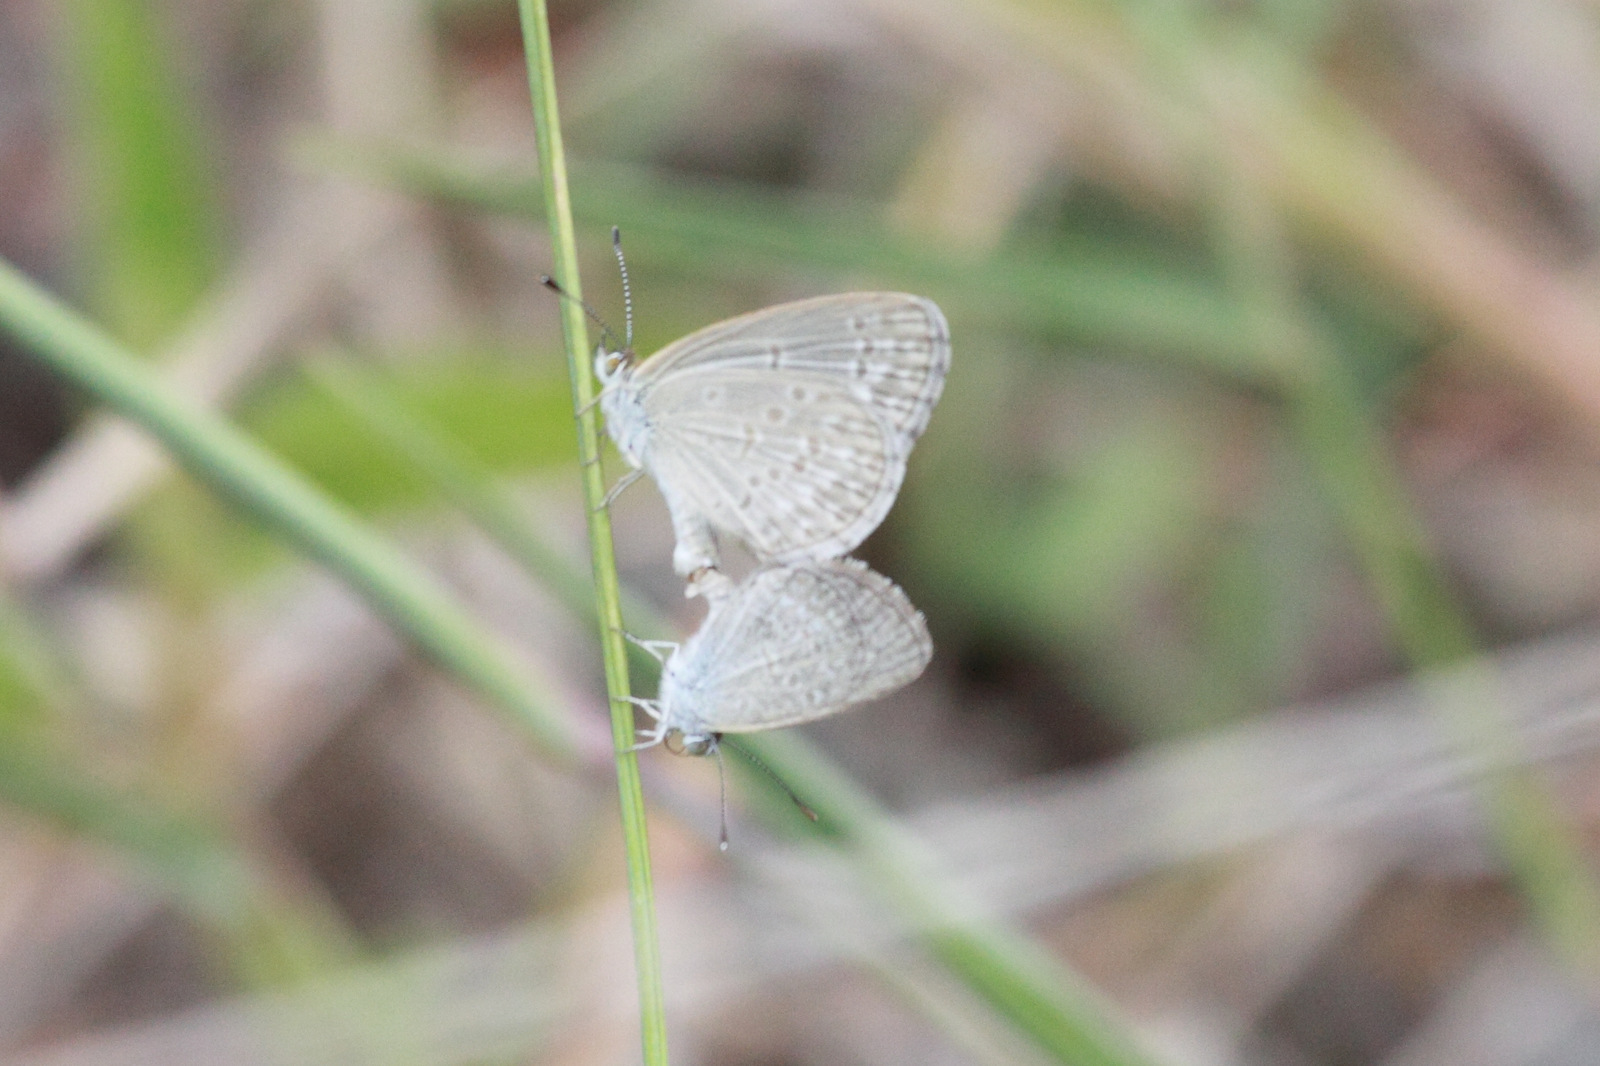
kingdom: Animalia
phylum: Arthropoda
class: Insecta
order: Lepidoptera
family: Lycaenidae
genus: Zizina
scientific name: Zizina otis
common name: Lesser grass blue
